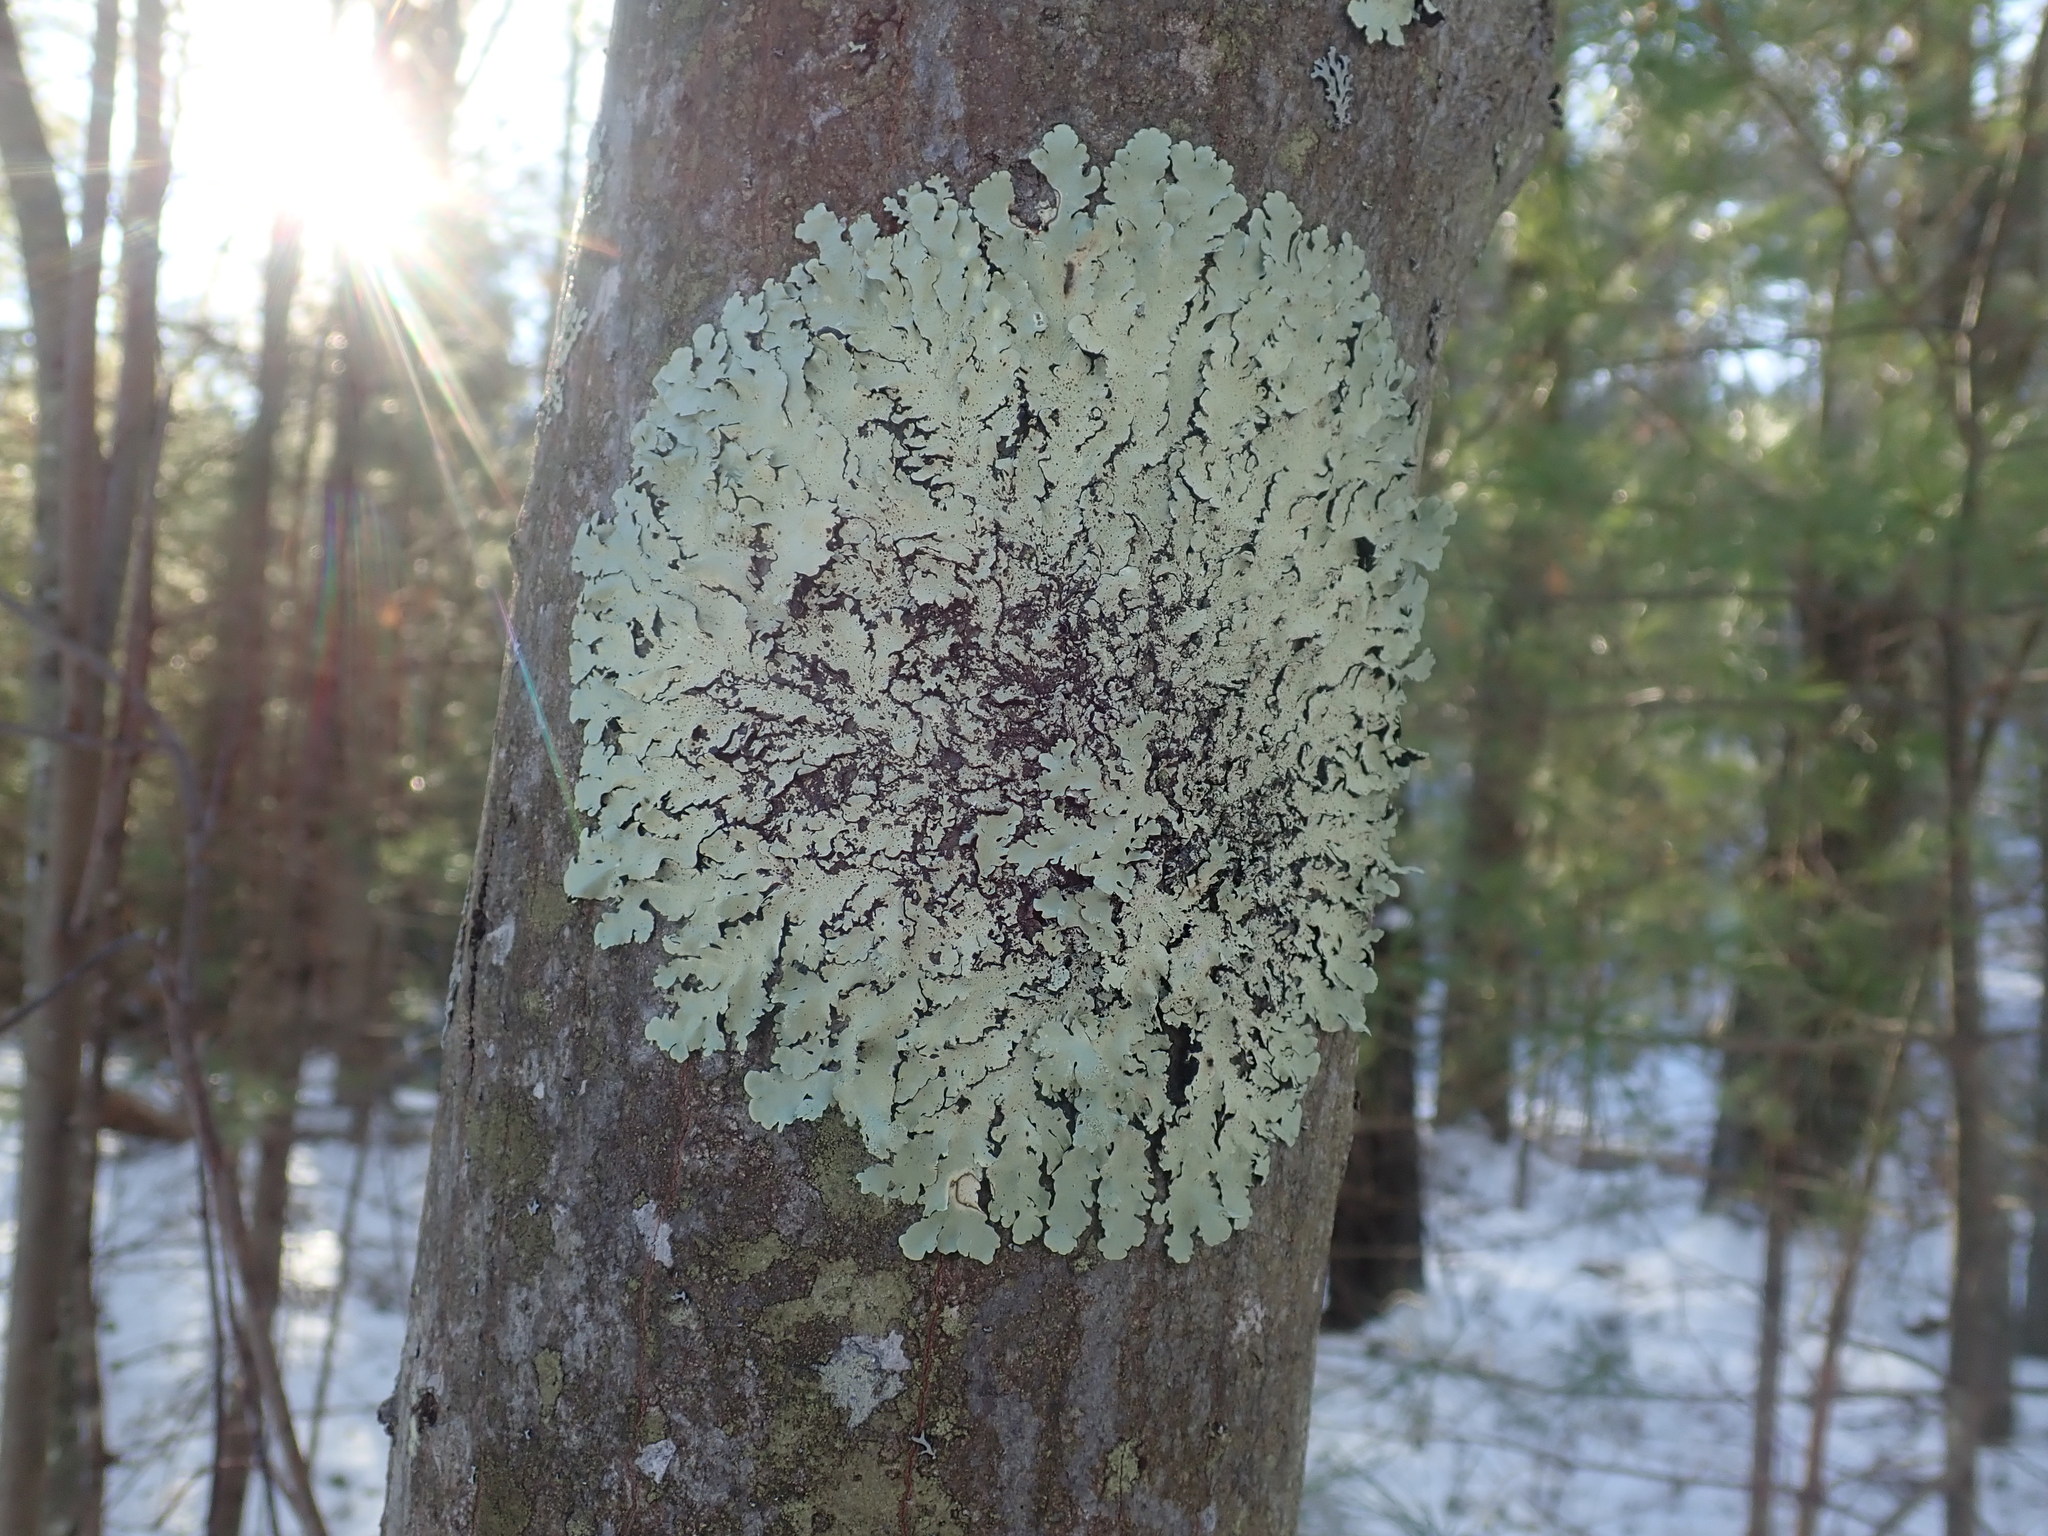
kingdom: Fungi
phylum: Ascomycota
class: Lecanoromycetes
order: Lecanorales
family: Parmeliaceae
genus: Flavoparmelia
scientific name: Flavoparmelia caperata
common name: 40-mile per hour lichen
